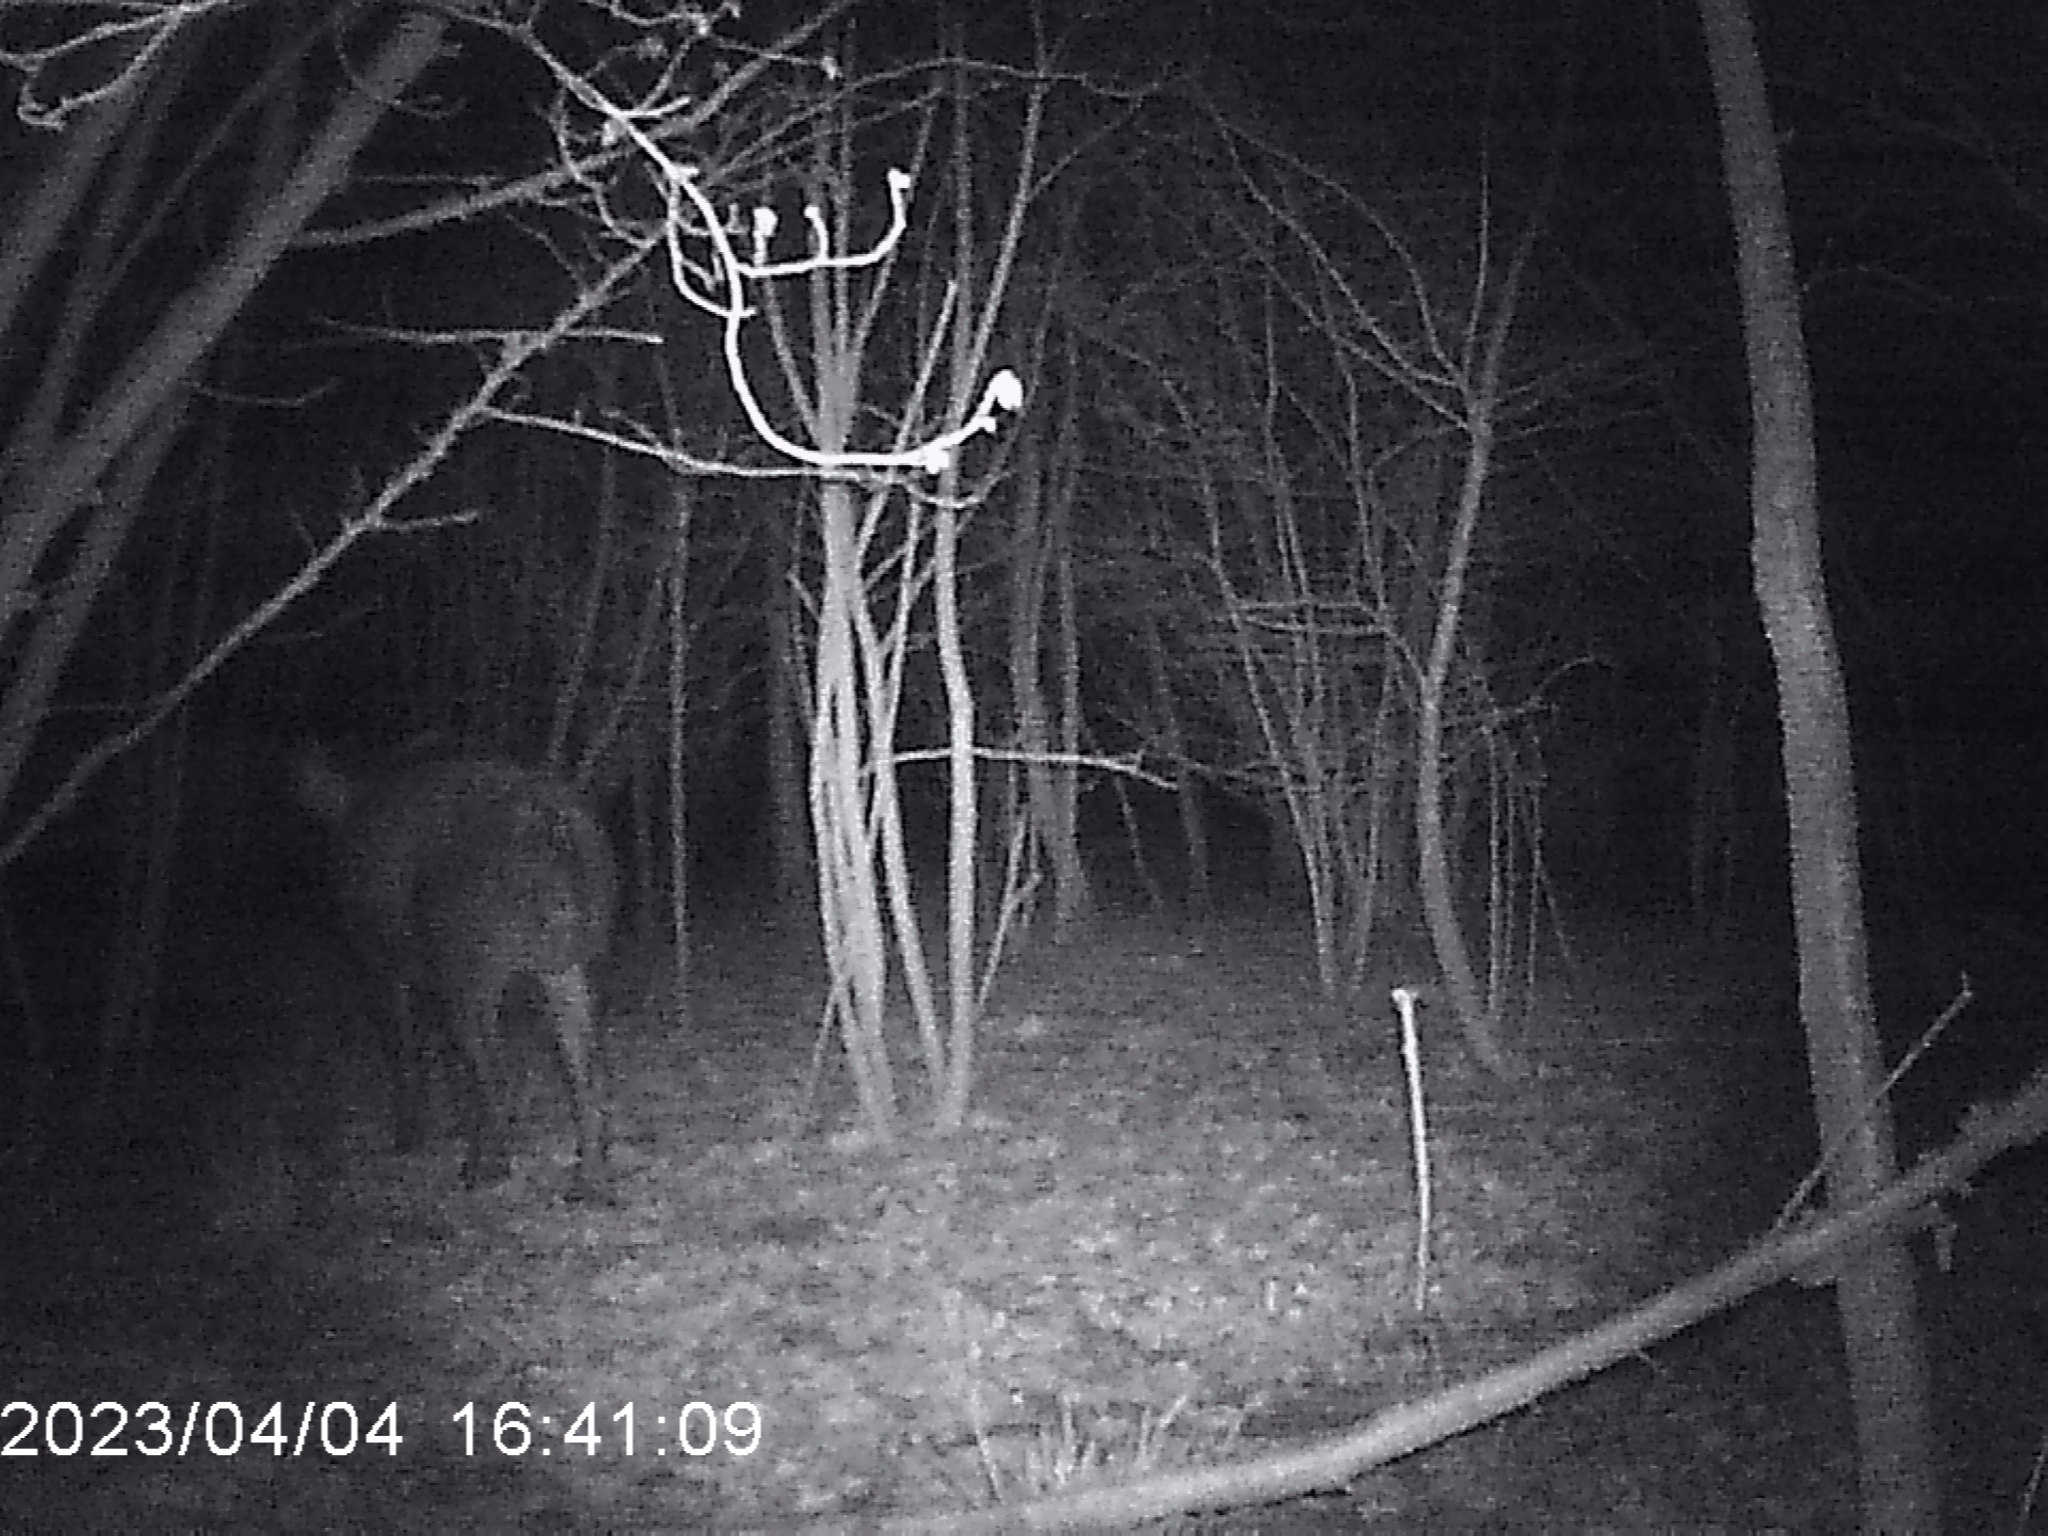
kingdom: Animalia
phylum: Chordata
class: Mammalia
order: Artiodactyla
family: Suidae
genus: Sus
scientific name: Sus scrofa
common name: Wild boar
